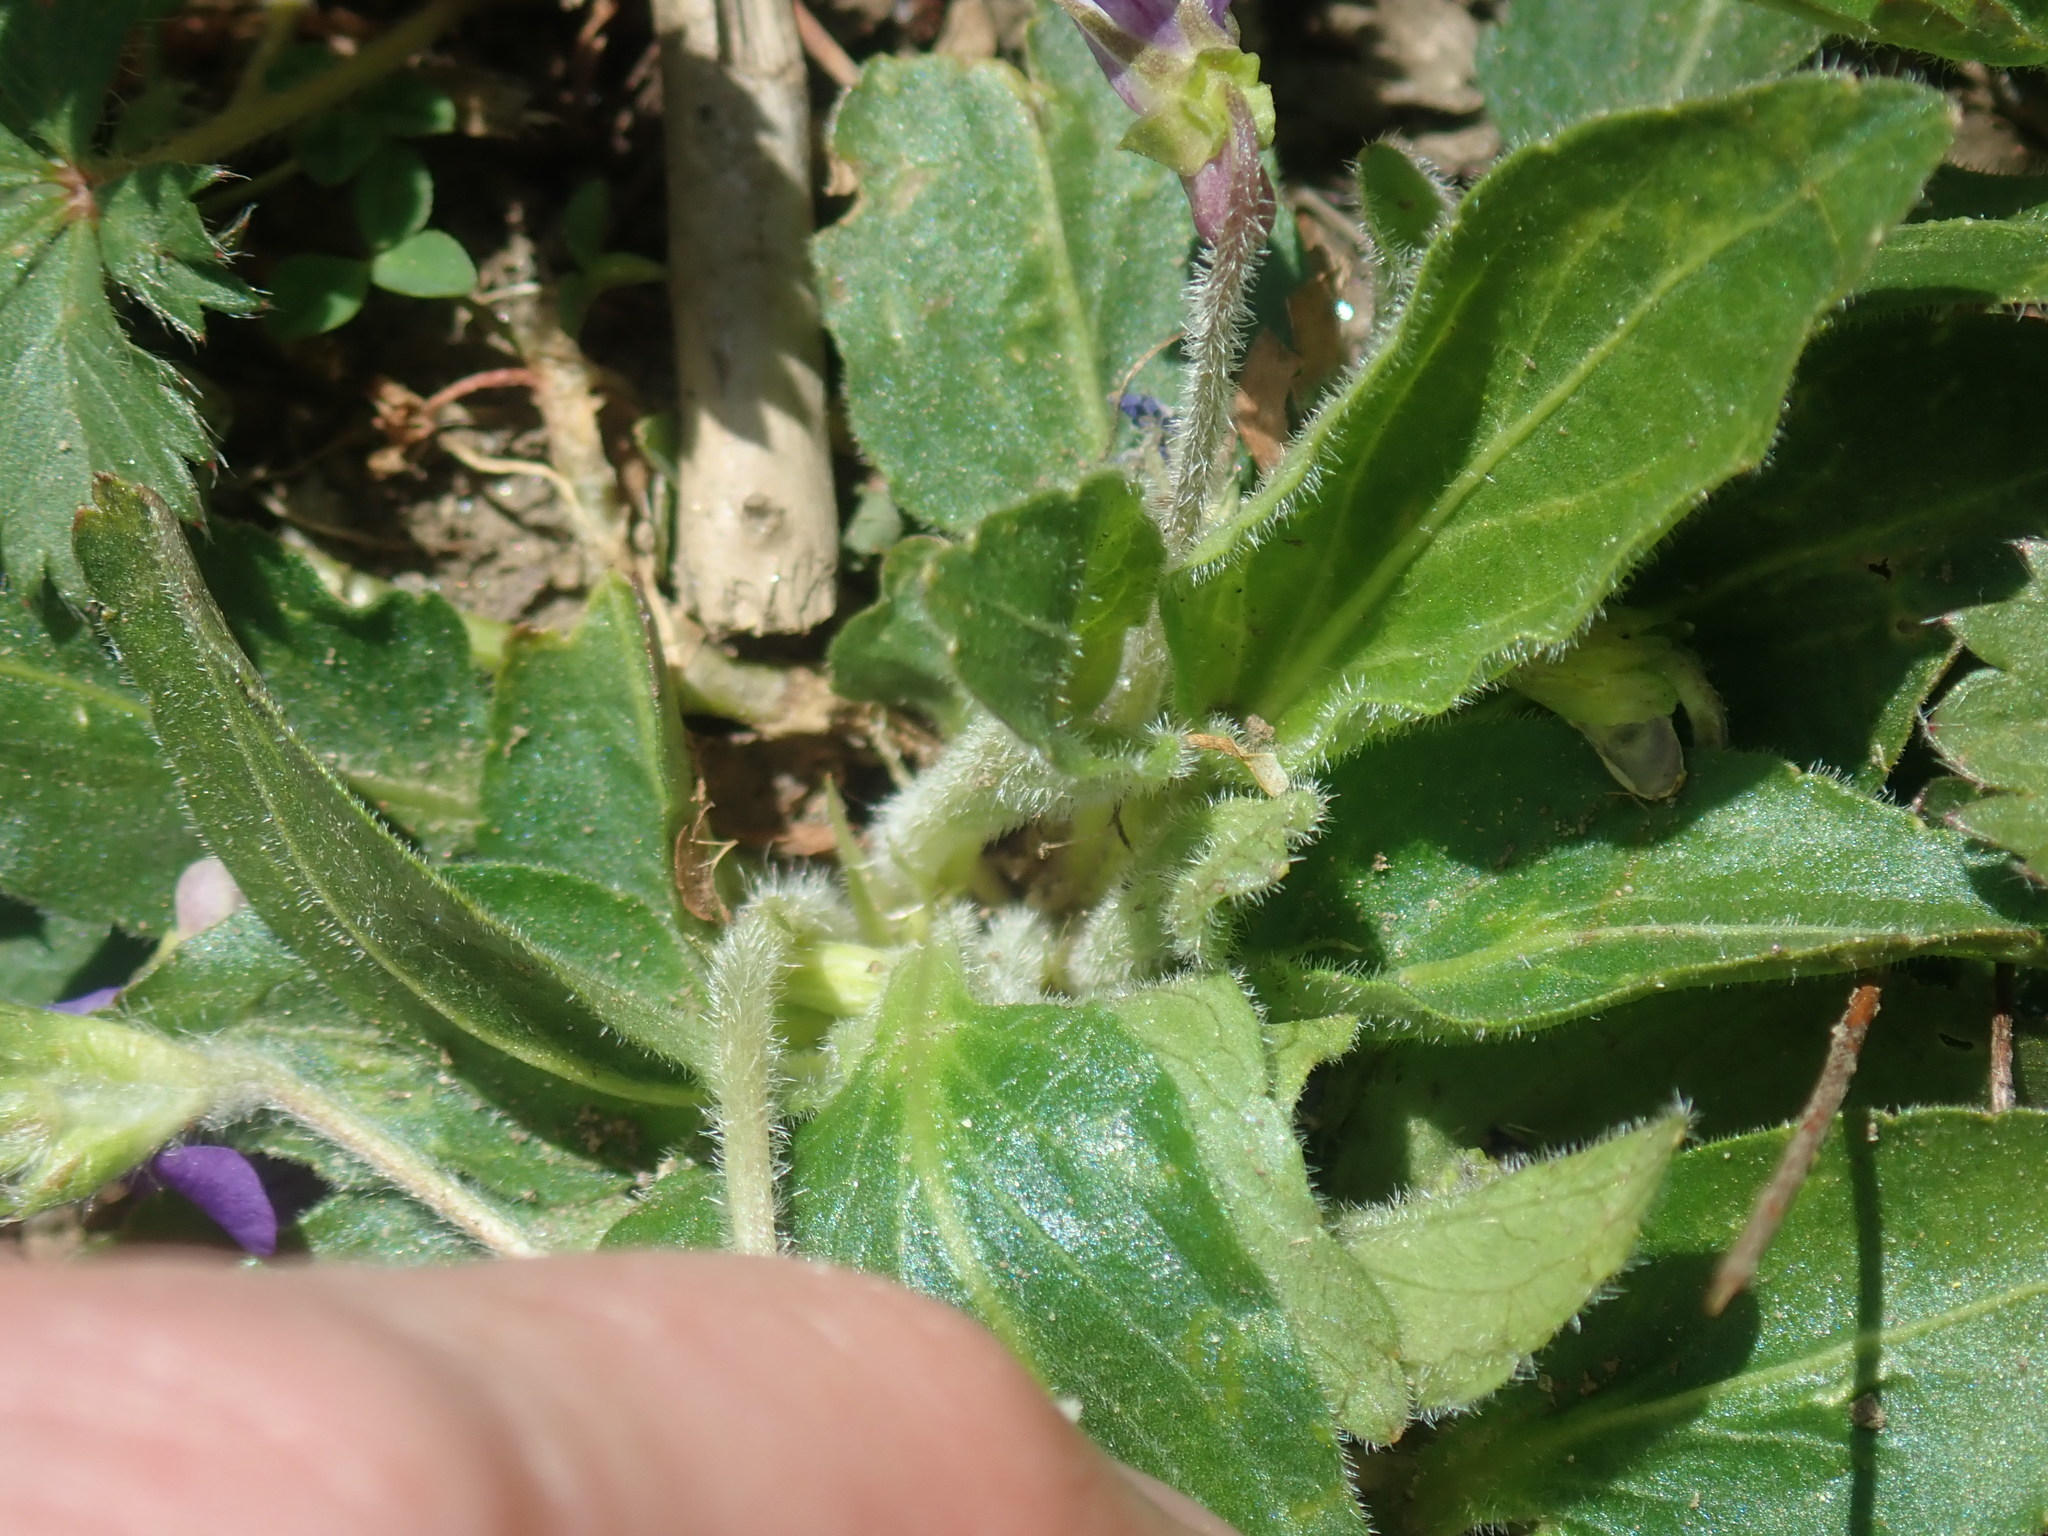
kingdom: Plantae
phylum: Tracheophyta
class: Magnoliopsida
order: Malpighiales
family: Violaceae
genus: Viola
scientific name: Viola sagittata
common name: Arrowhead violet
